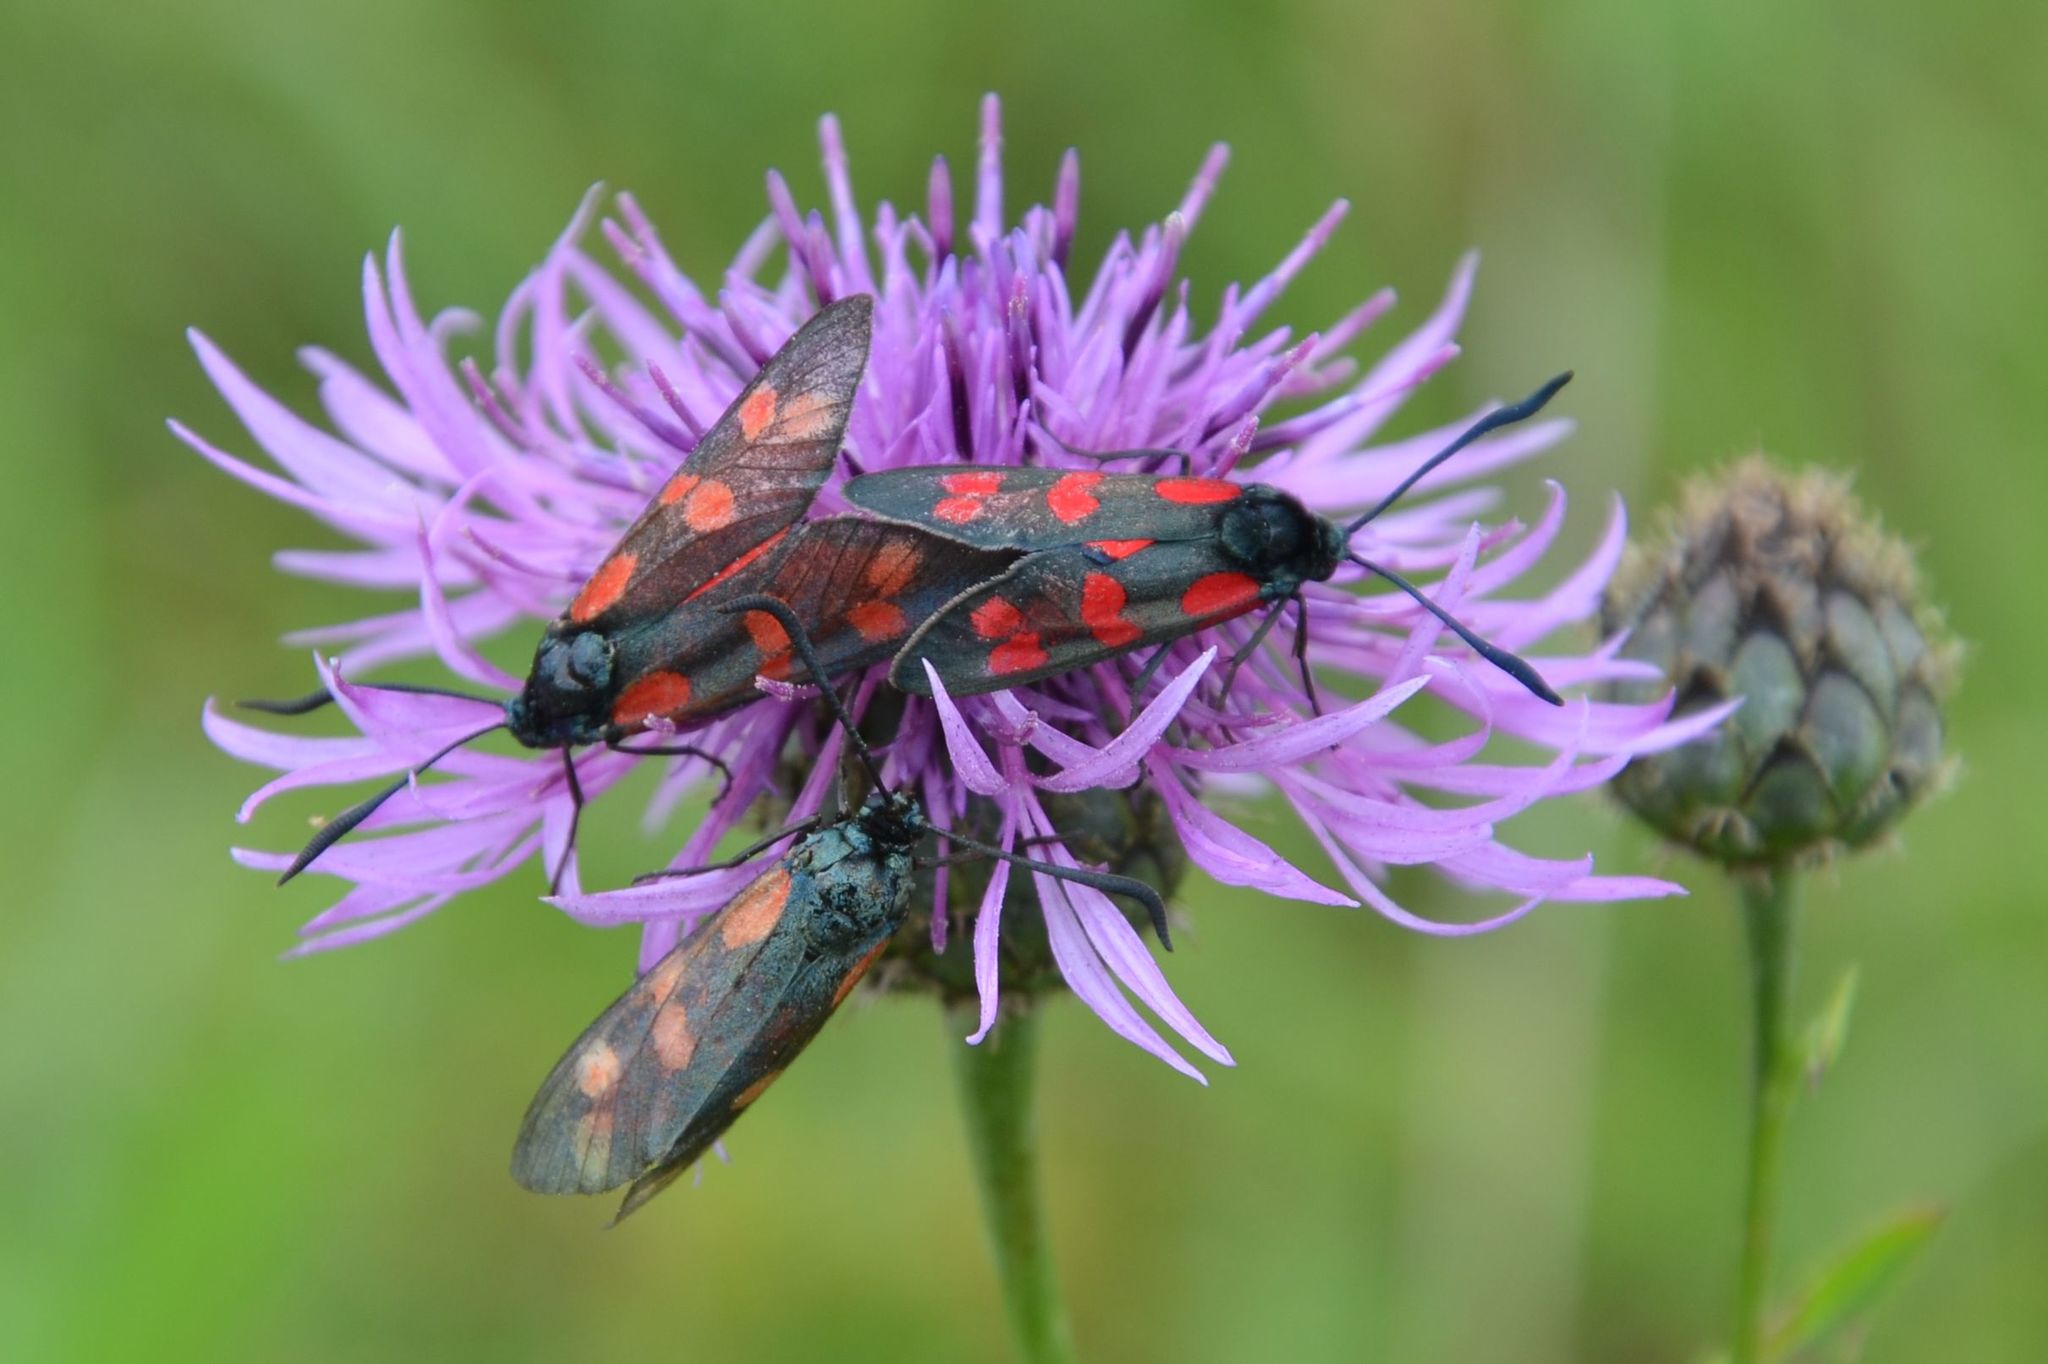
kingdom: Animalia
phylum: Arthropoda
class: Insecta
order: Lepidoptera
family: Zygaenidae
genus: Zygaena
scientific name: Zygaena filipendulae
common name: Six-spot burnet
